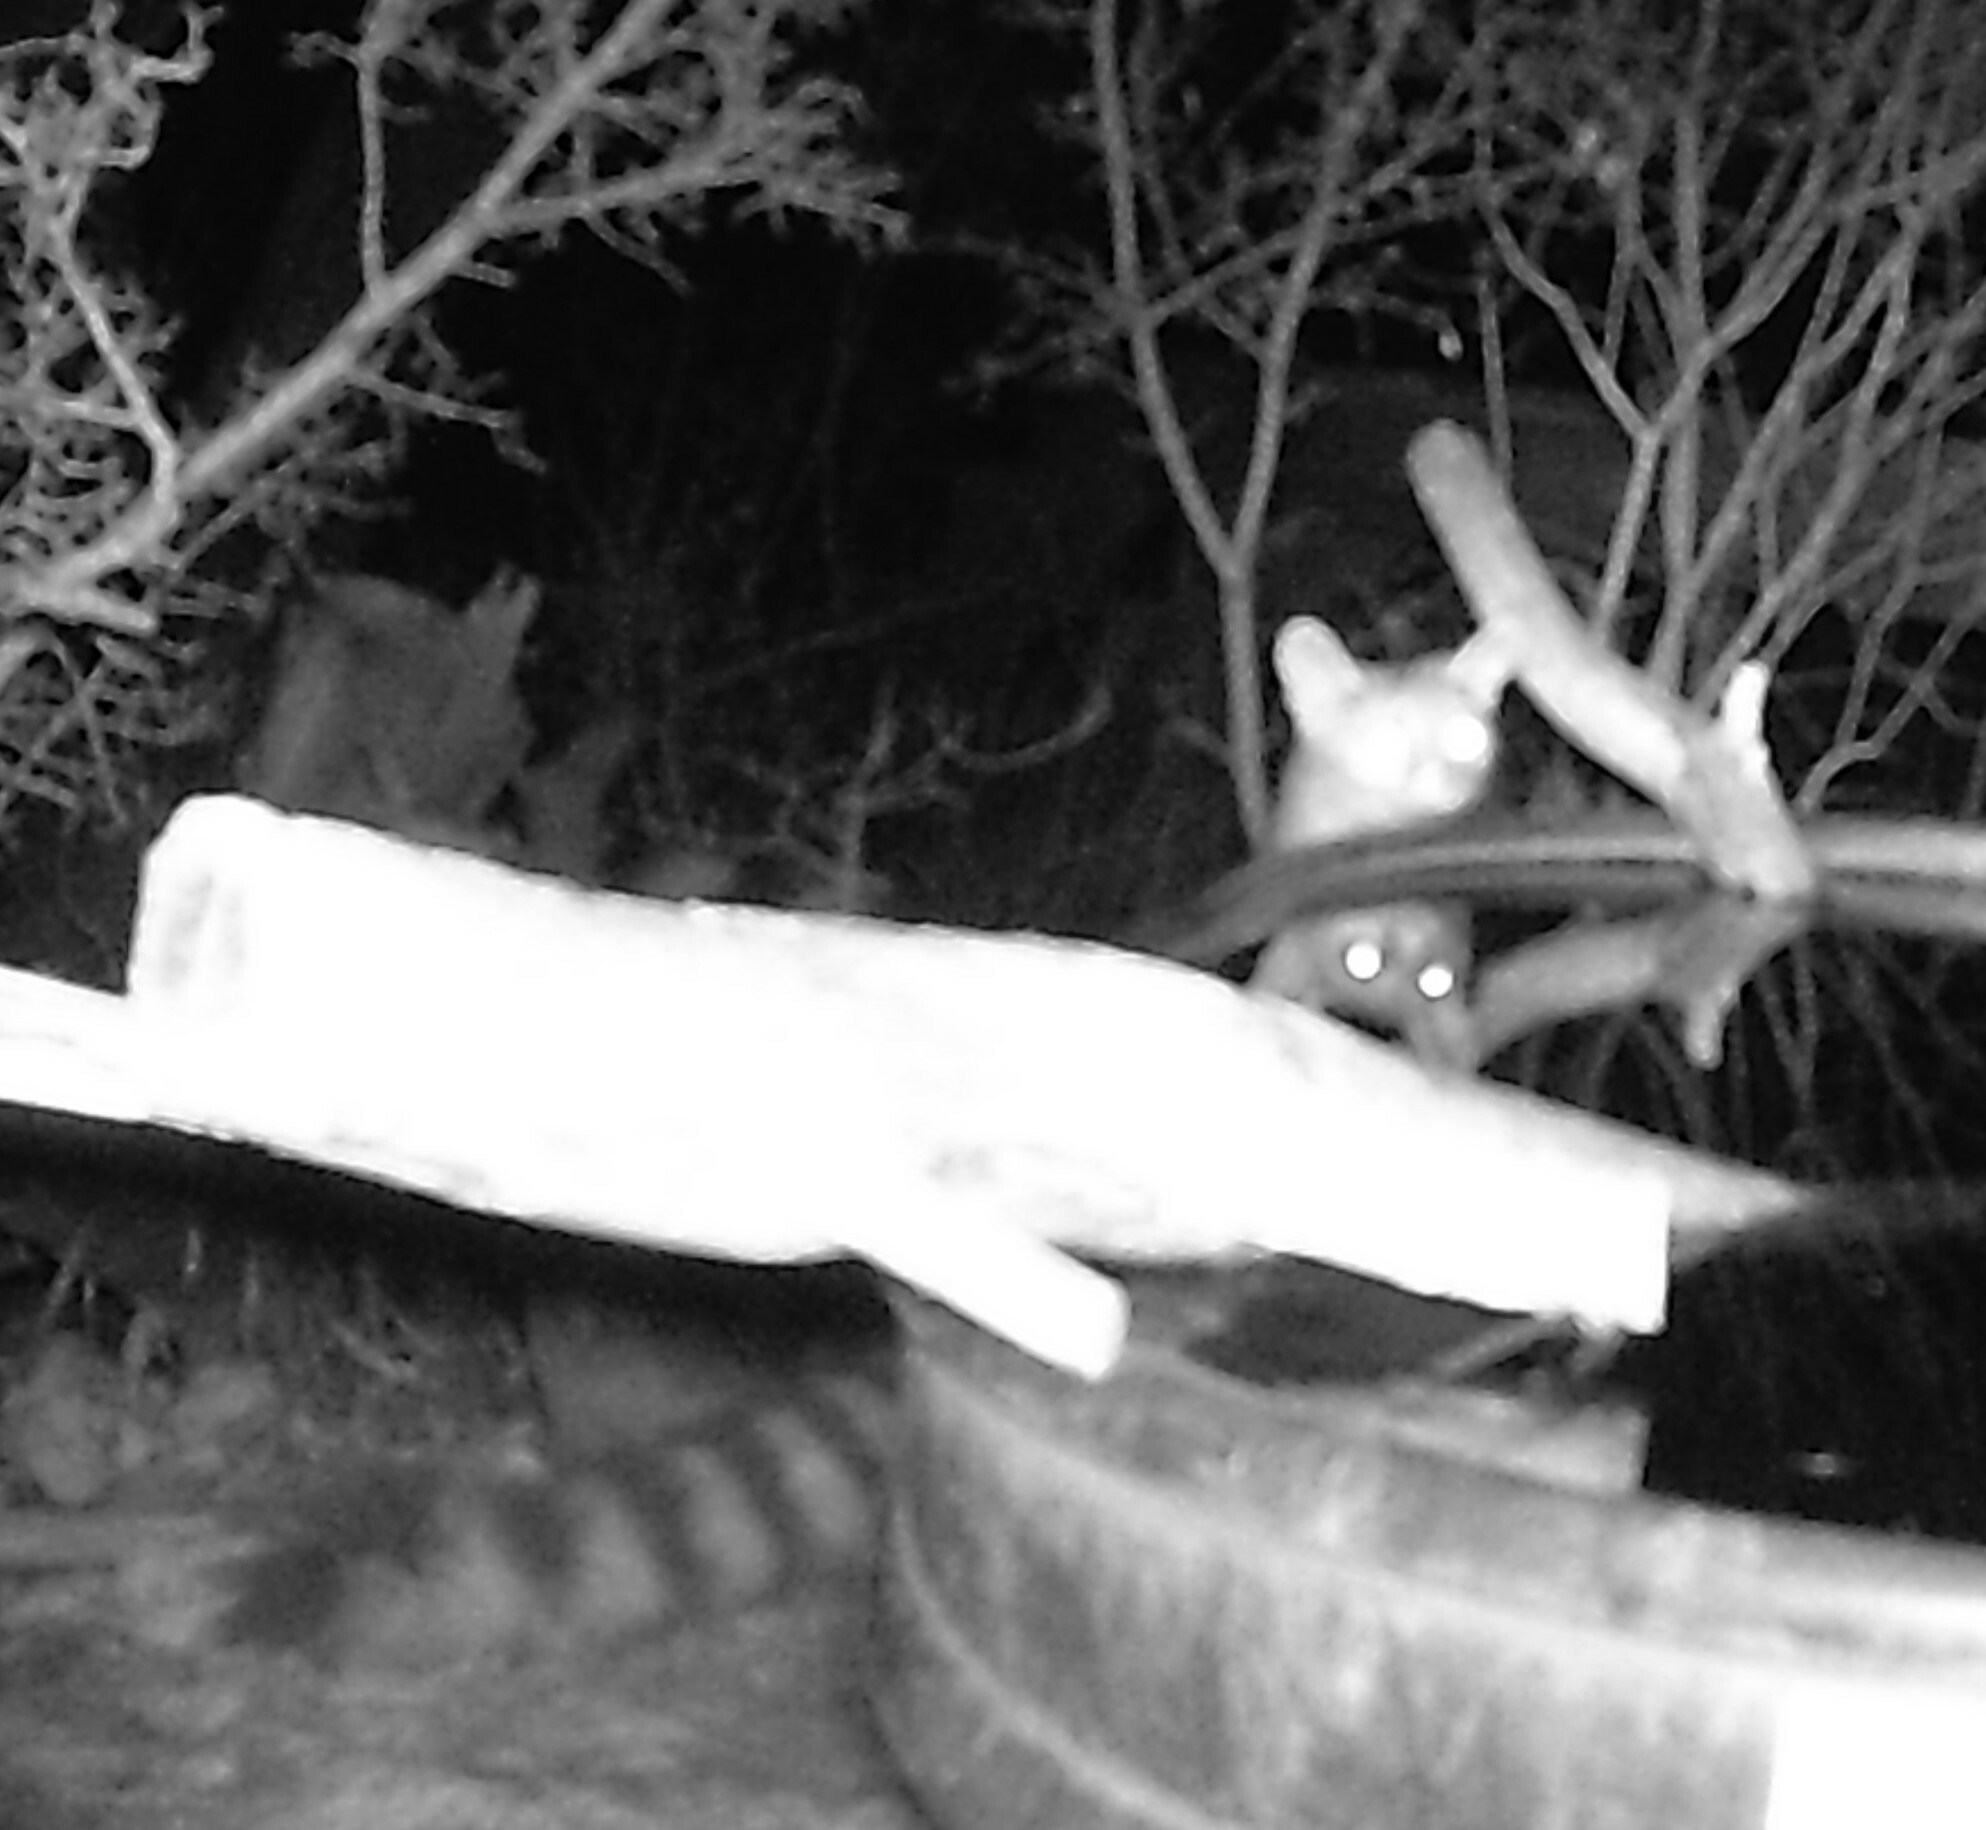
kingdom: Animalia
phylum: Chordata
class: Mammalia
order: Carnivora
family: Procyonidae
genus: Bassariscus
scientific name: Bassariscus astutus
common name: Ringtail
